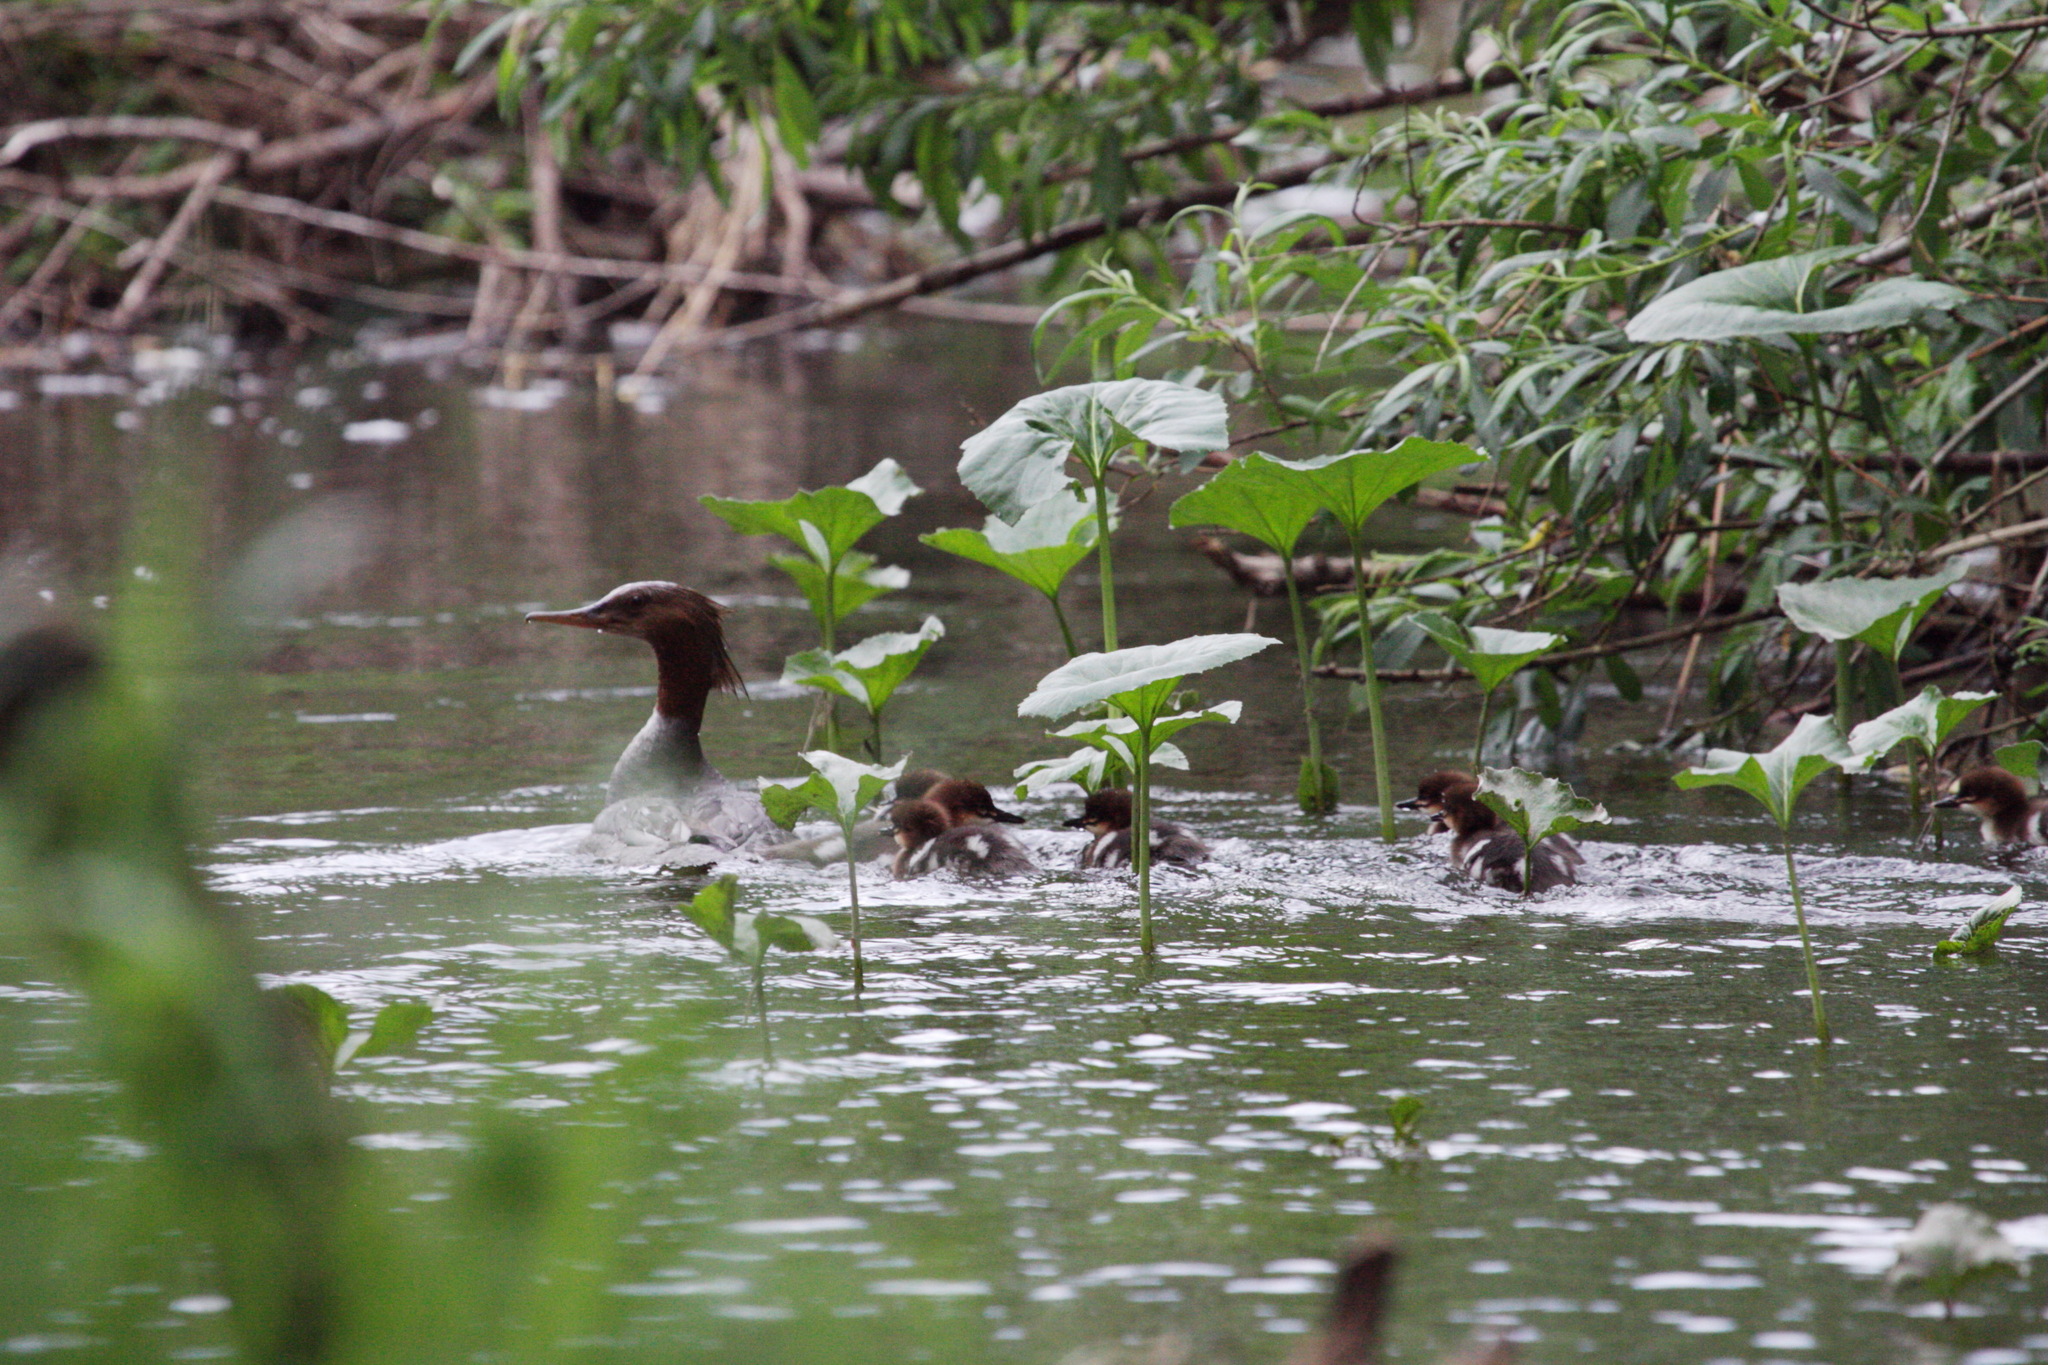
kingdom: Animalia
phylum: Chordata
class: Aves
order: Anseriformes
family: Anatidae
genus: Mergus
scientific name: Mergus merganser
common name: Common merganser
